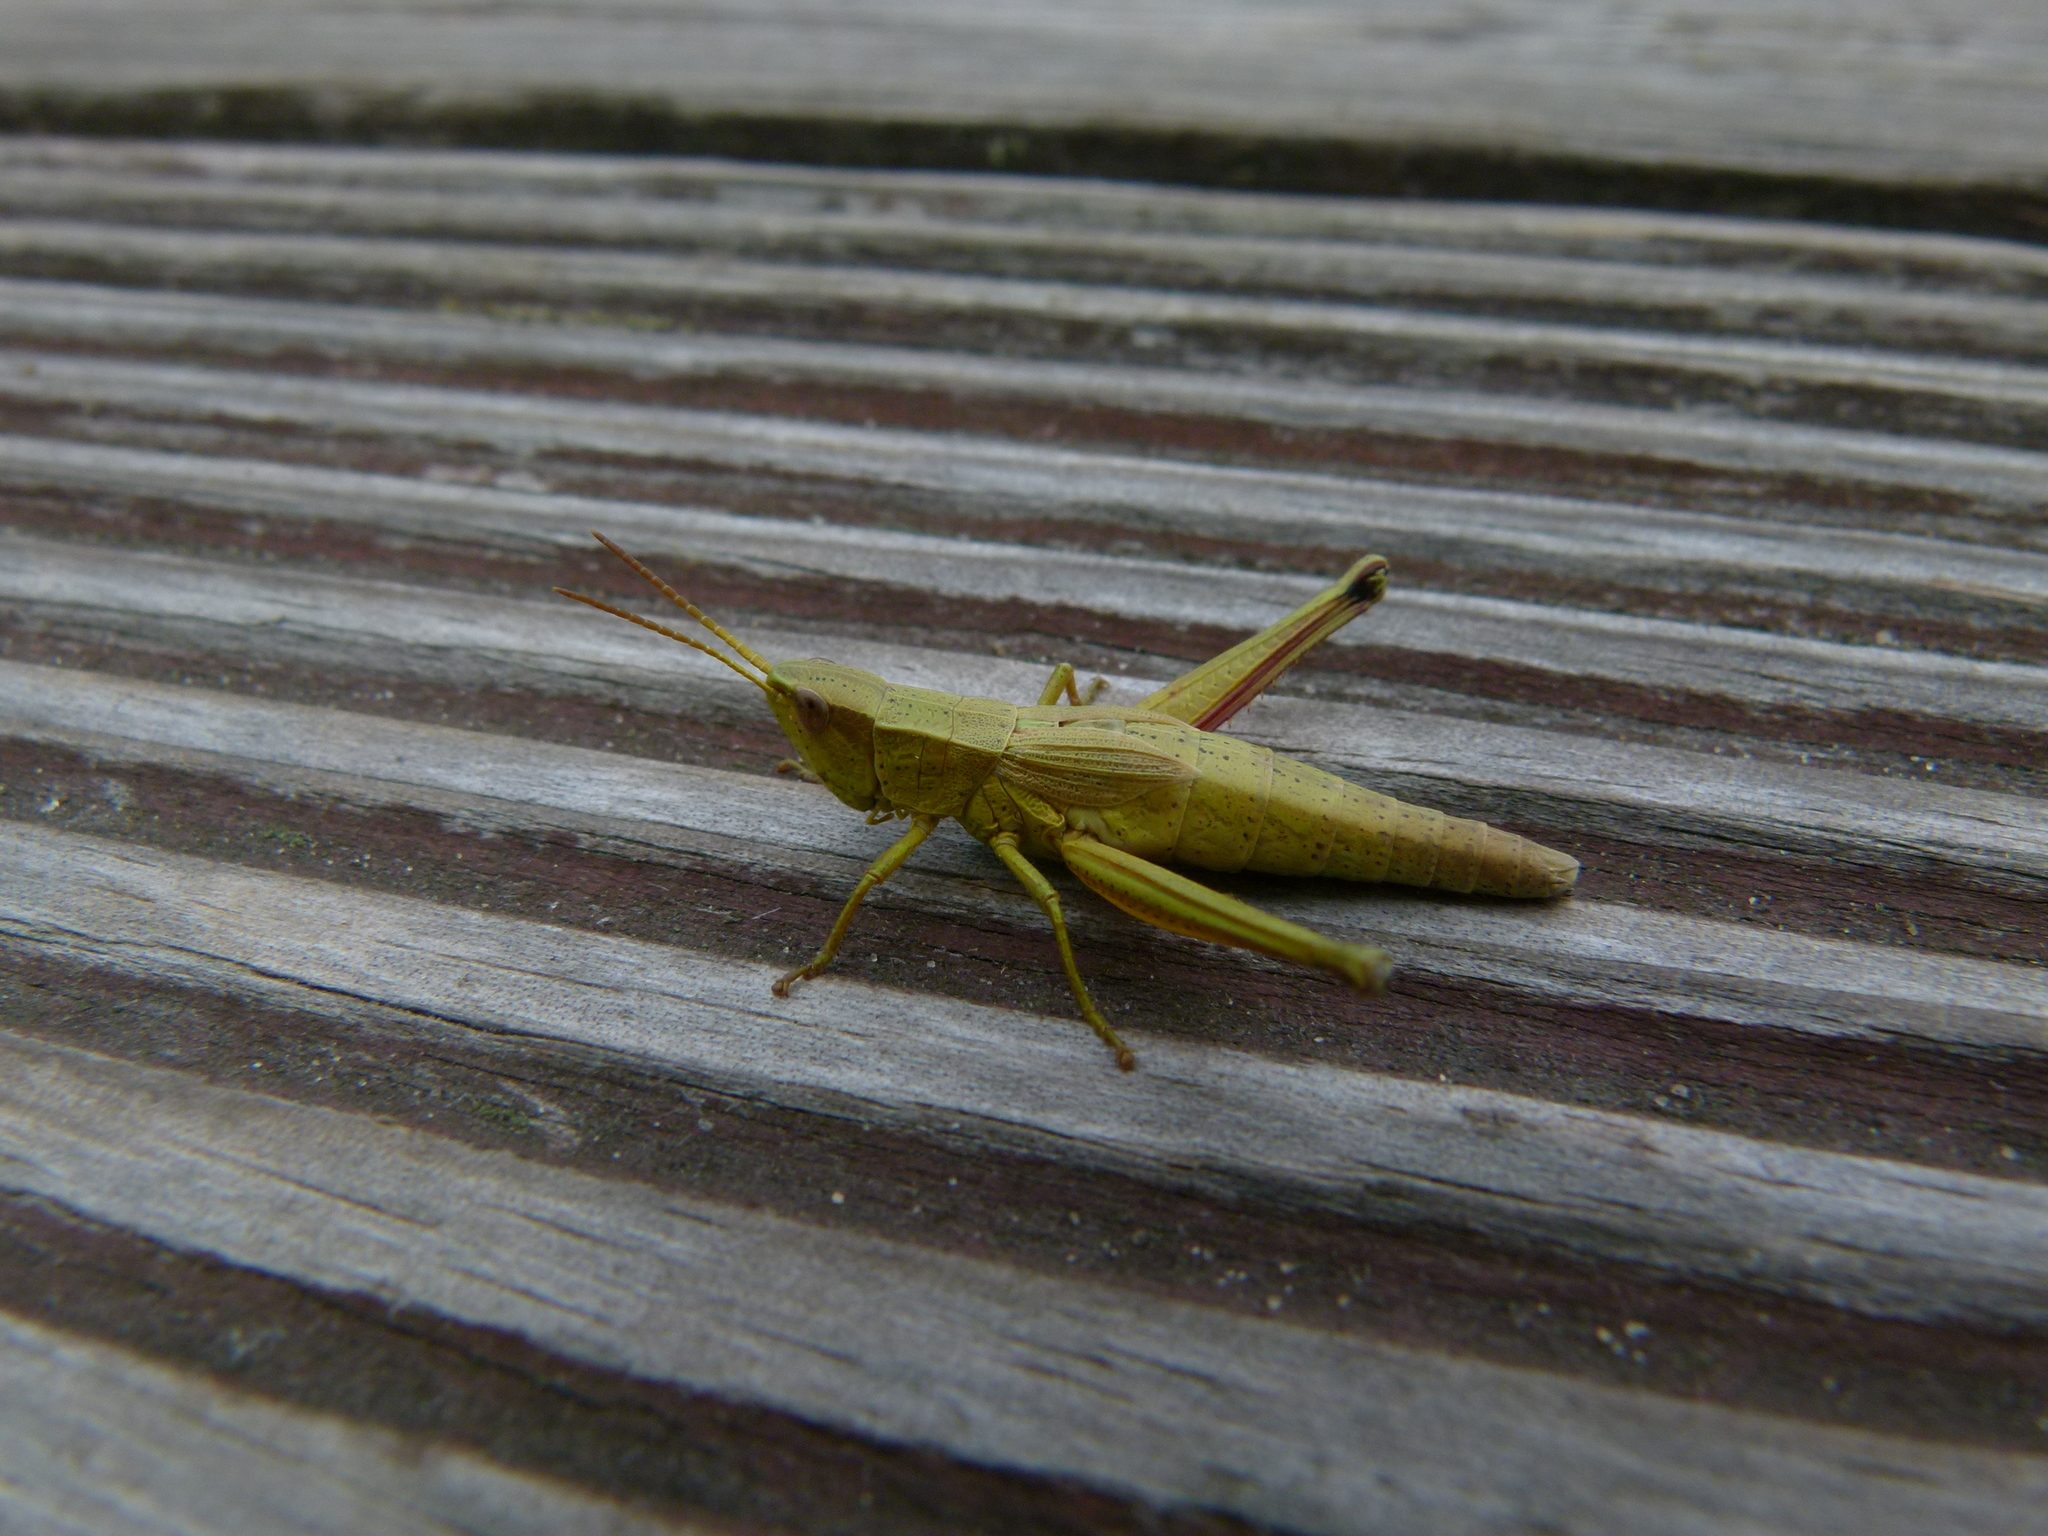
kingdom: Animalia
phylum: Arthropoda
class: Insecta
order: Orthoptera
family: Acrididae
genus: Chrysochraon
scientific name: Chrysochraon dispar
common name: Large gold grasshopper
